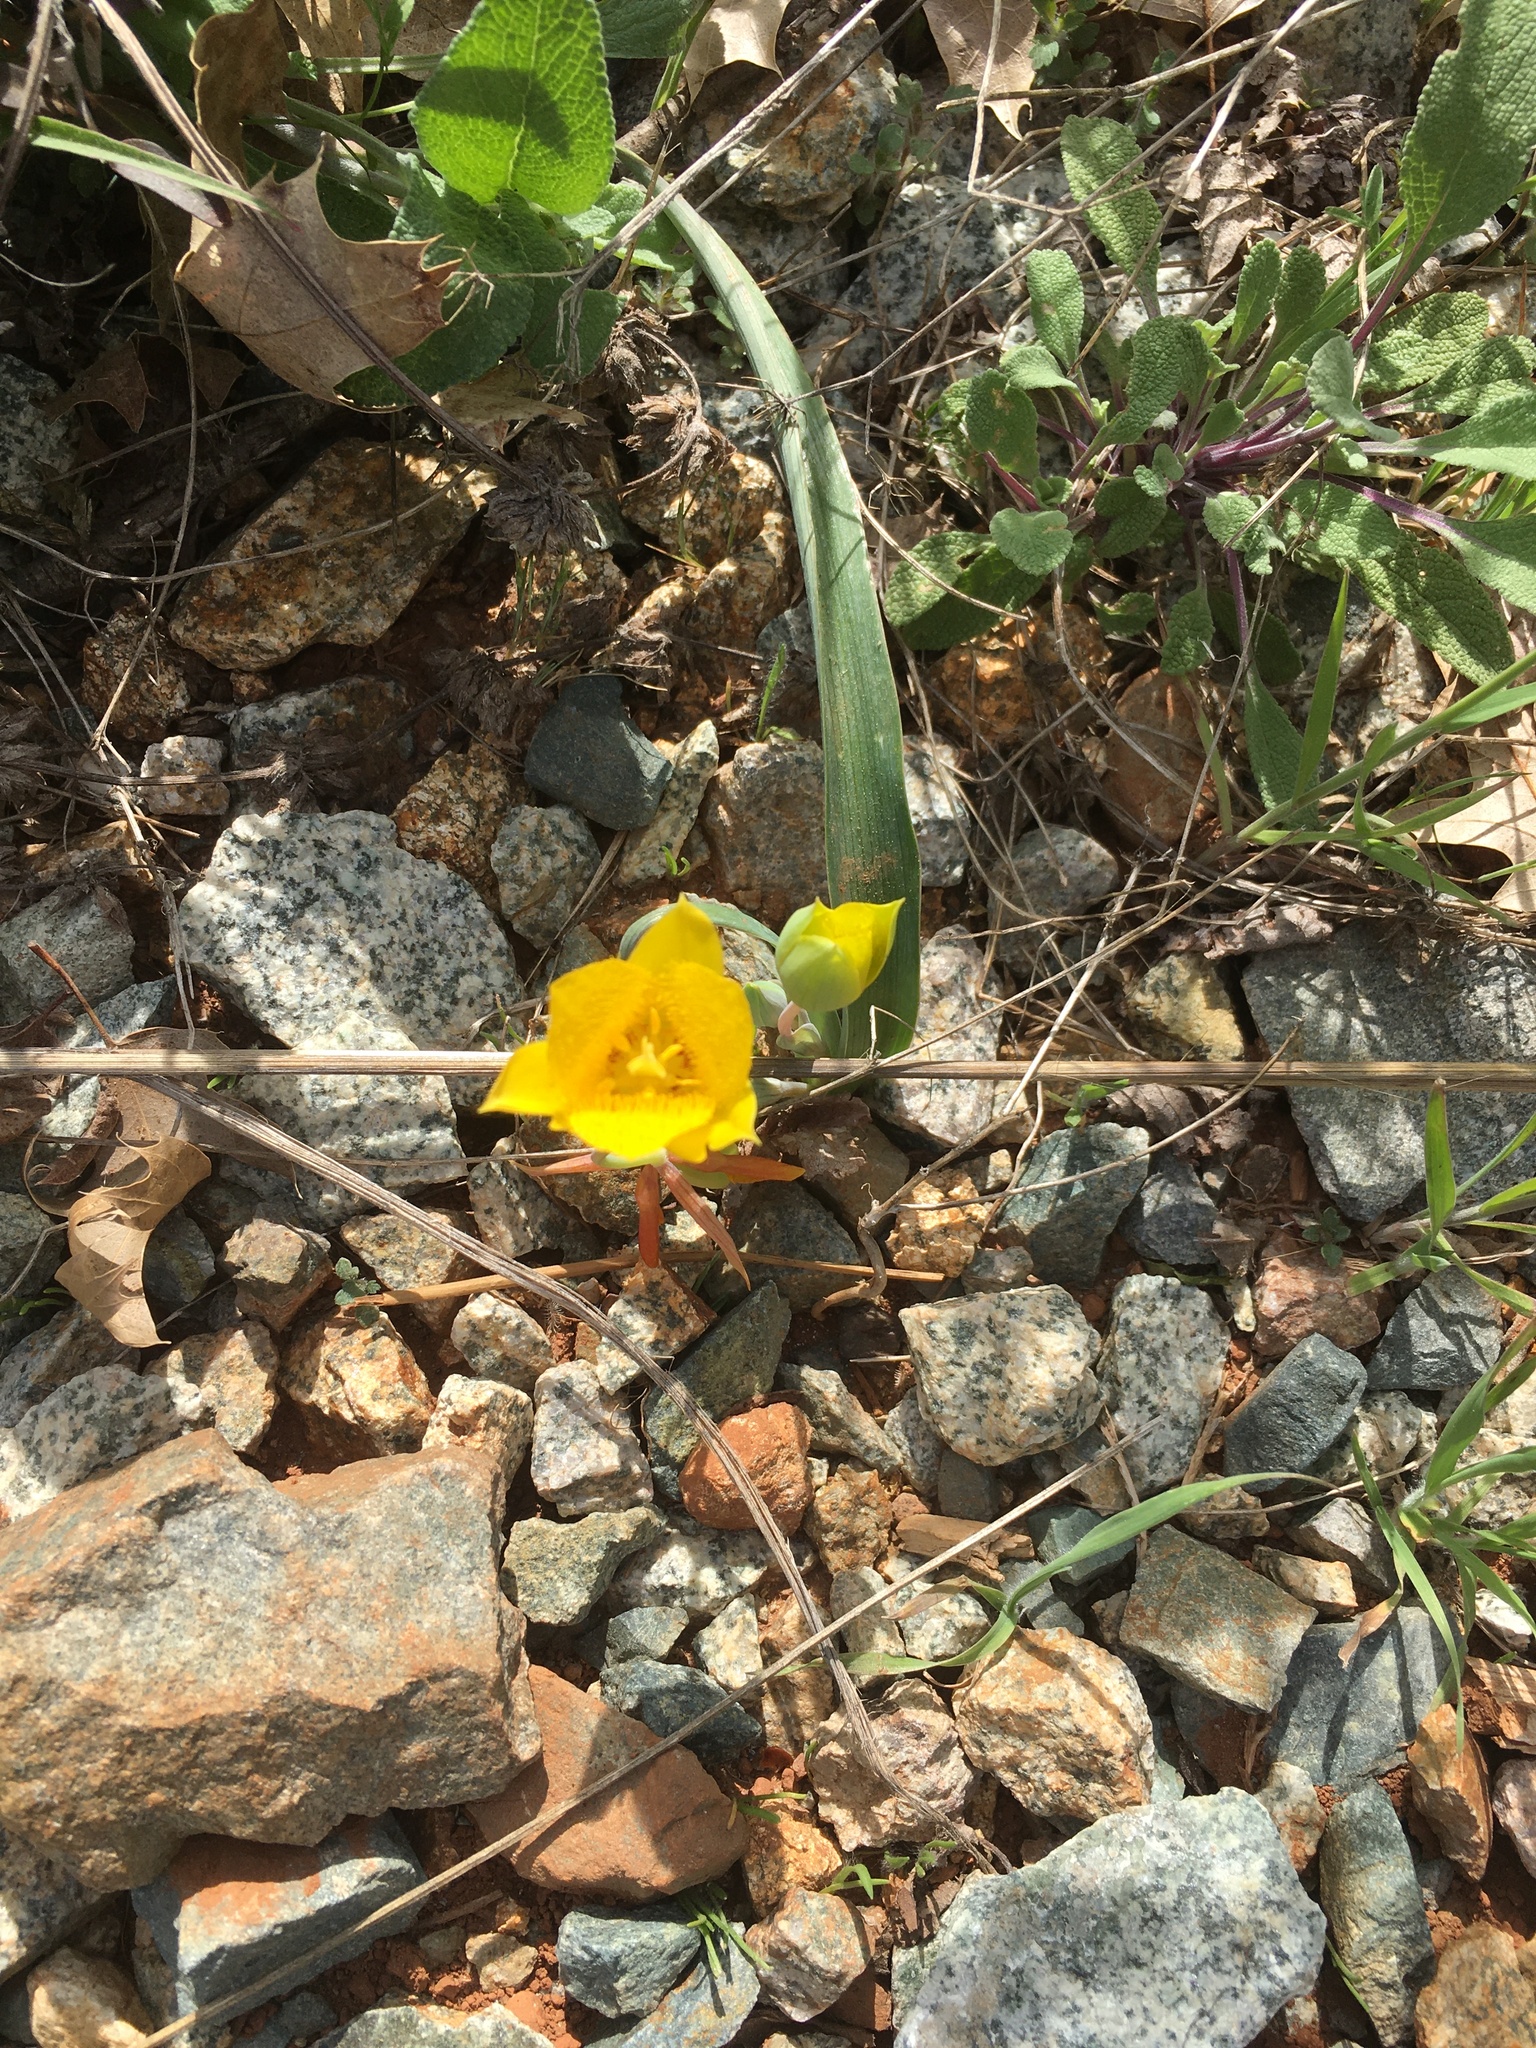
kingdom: Plantae
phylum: Tracheophyta
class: Liliopsida
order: Liliales
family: Liliaceae
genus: Calochortus
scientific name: Calochortus monophyllus
